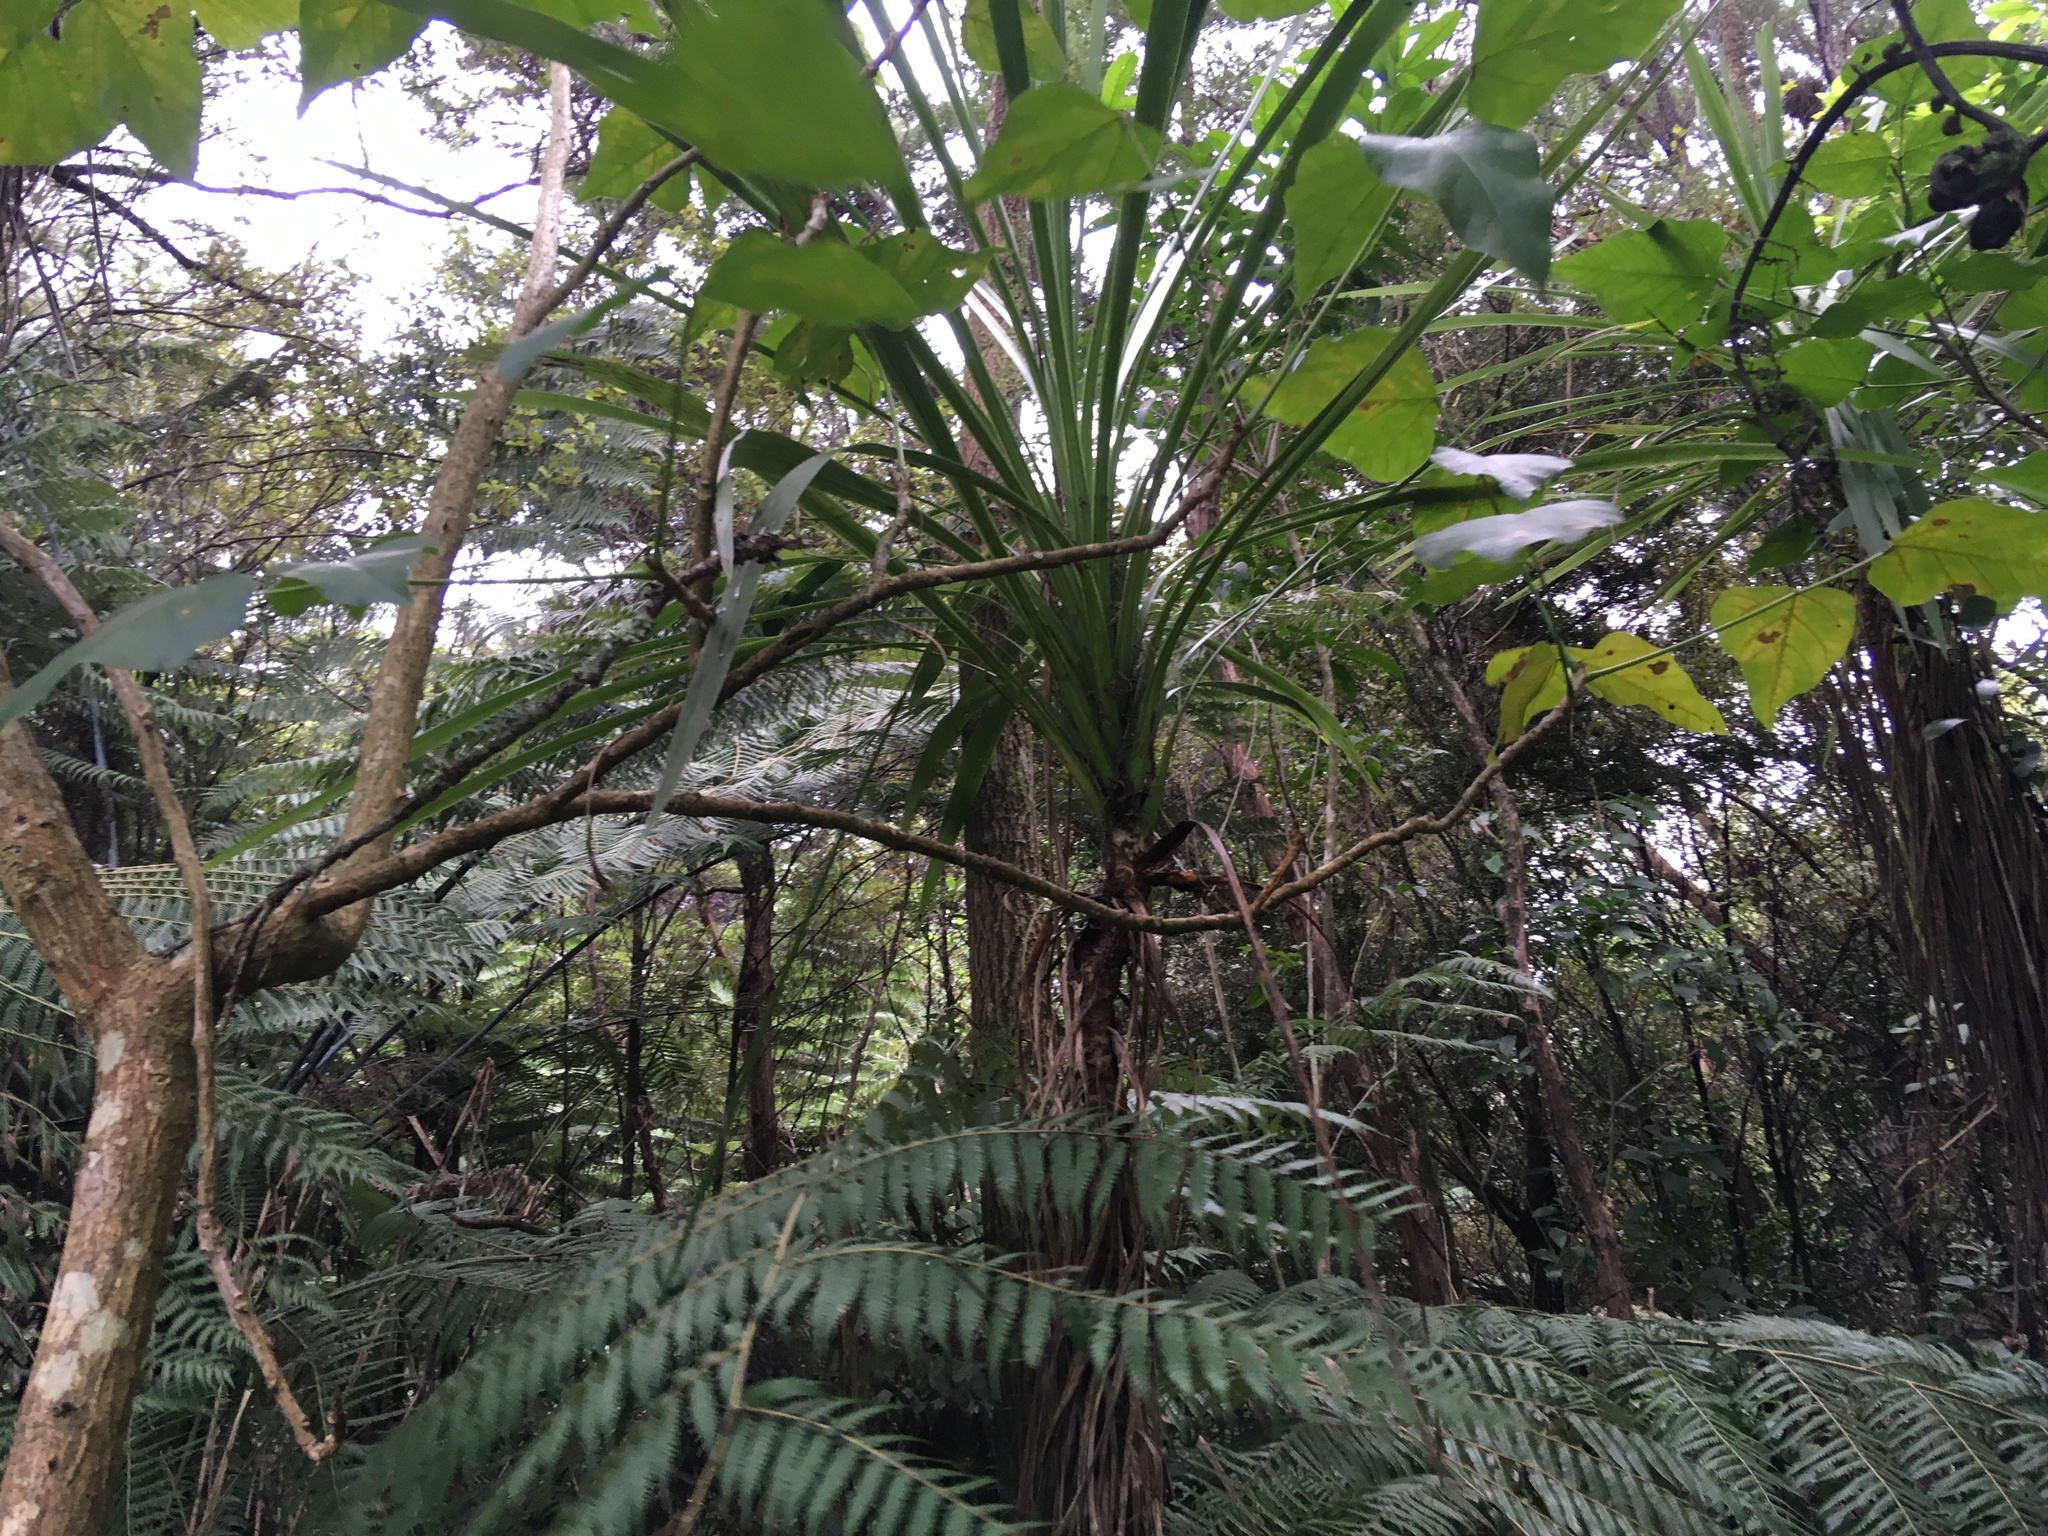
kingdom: Plantae
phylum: Tracheophyta
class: Magnoliopsida
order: Fabales
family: Fabaceae
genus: Erythrina
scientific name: Erythrina sykesii
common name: Coraltree
